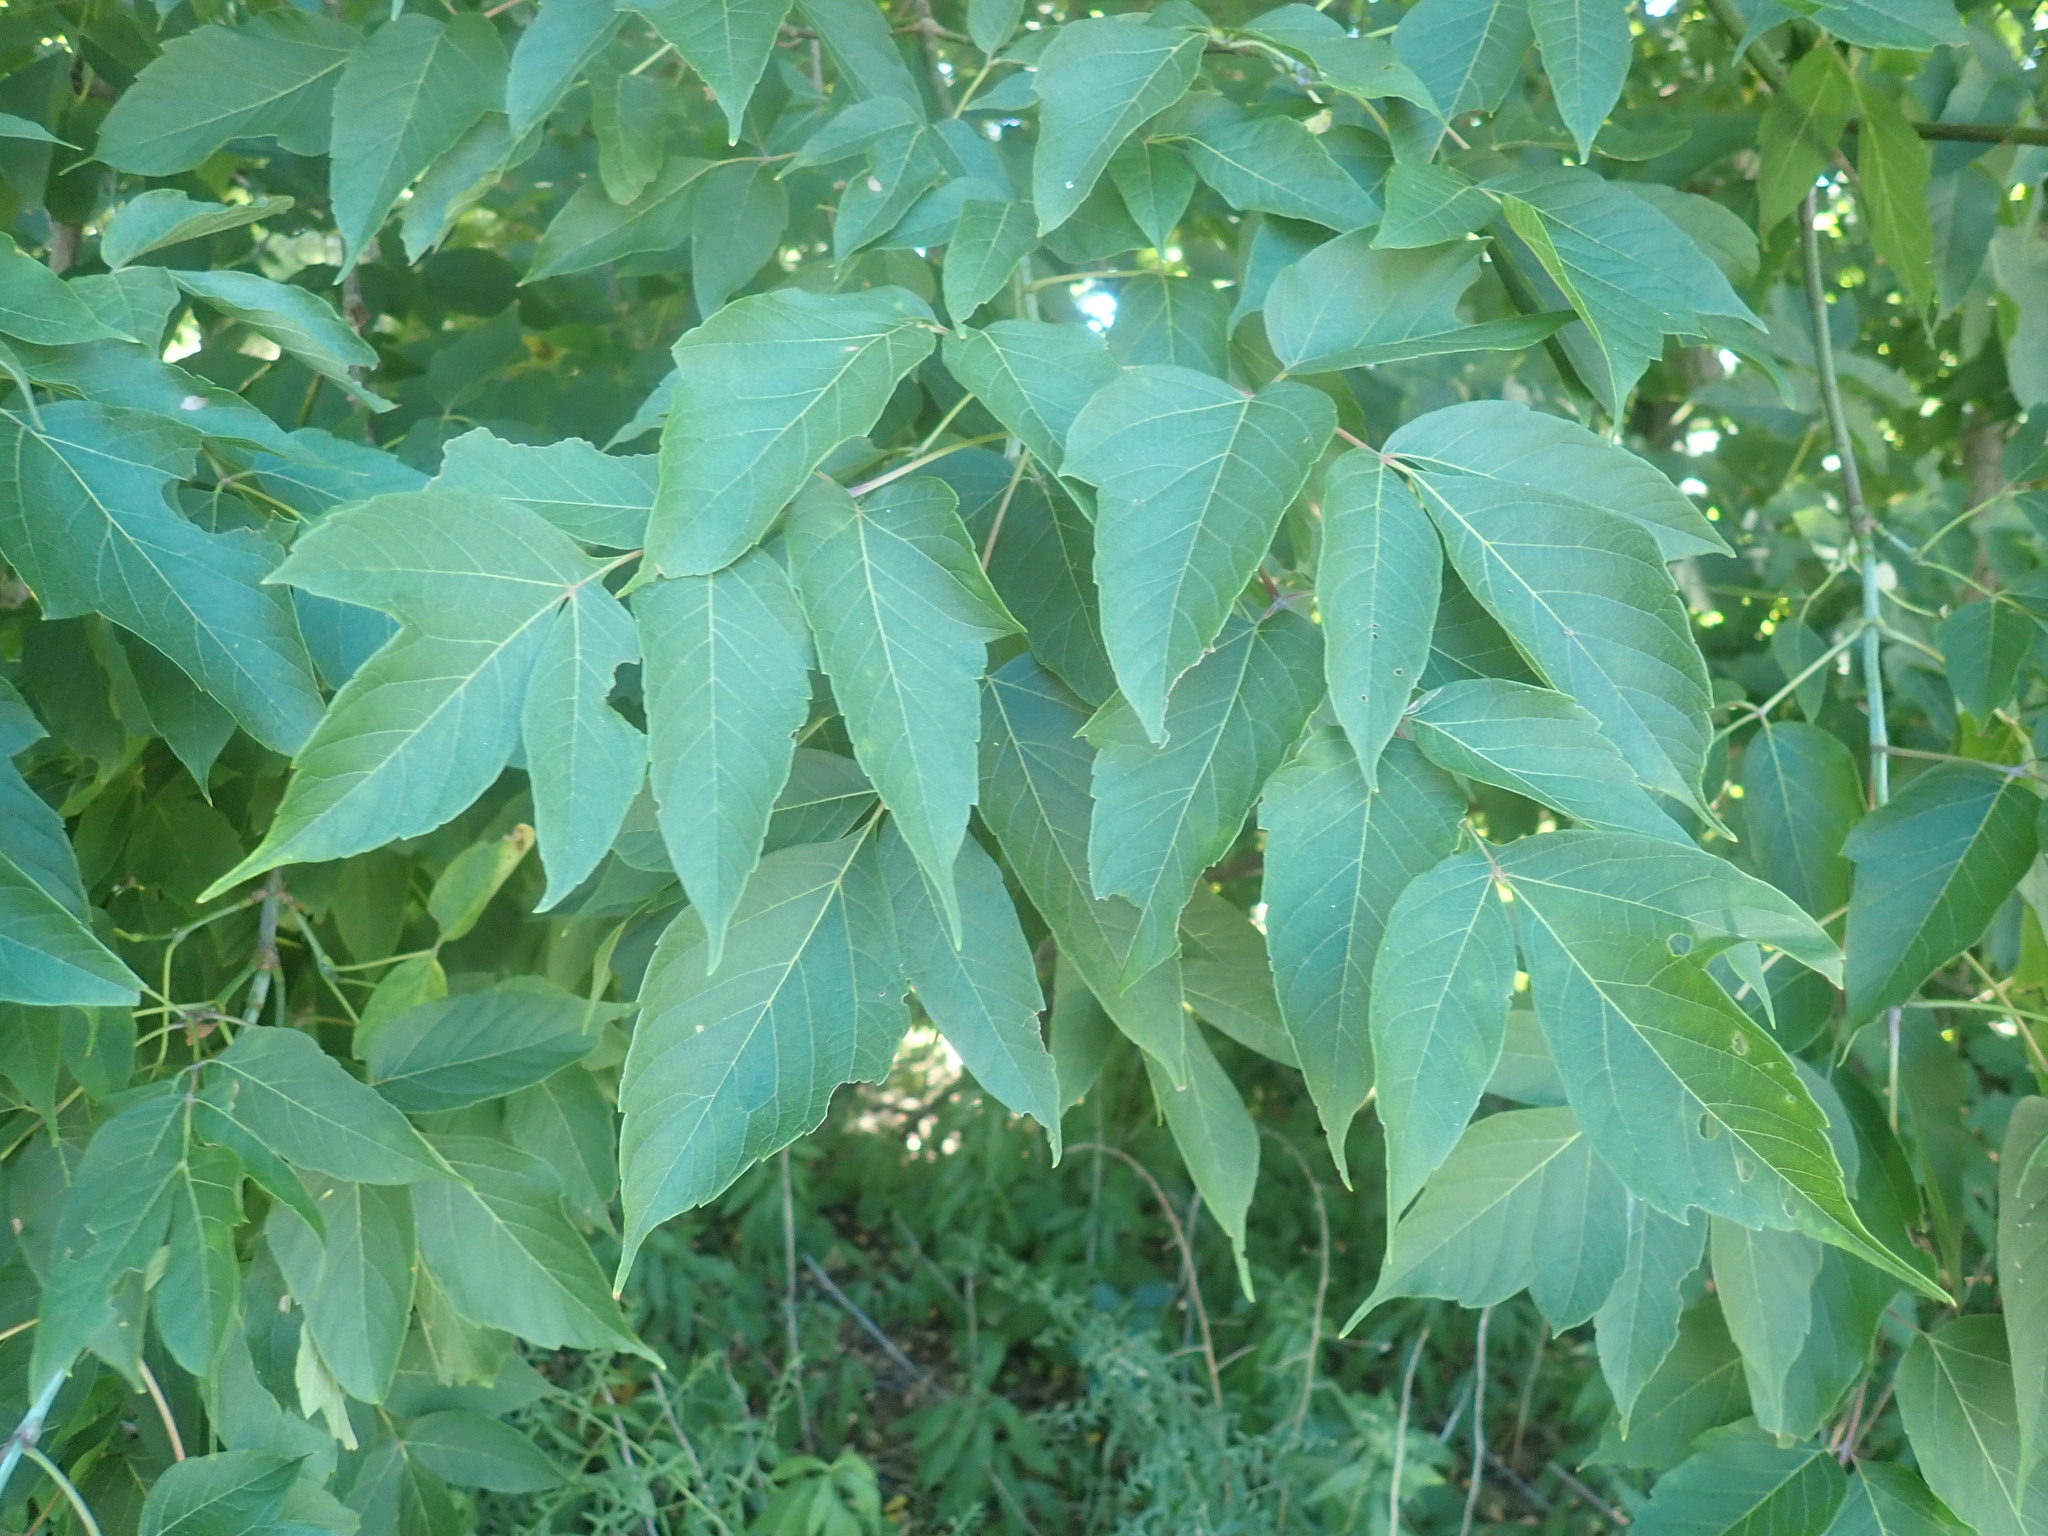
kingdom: Plantae
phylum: Tracheophyta
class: Magnoliopsida
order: Sapindales
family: Sapindaceae
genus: Acer
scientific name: Acer negundo
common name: Ashleaf maple
